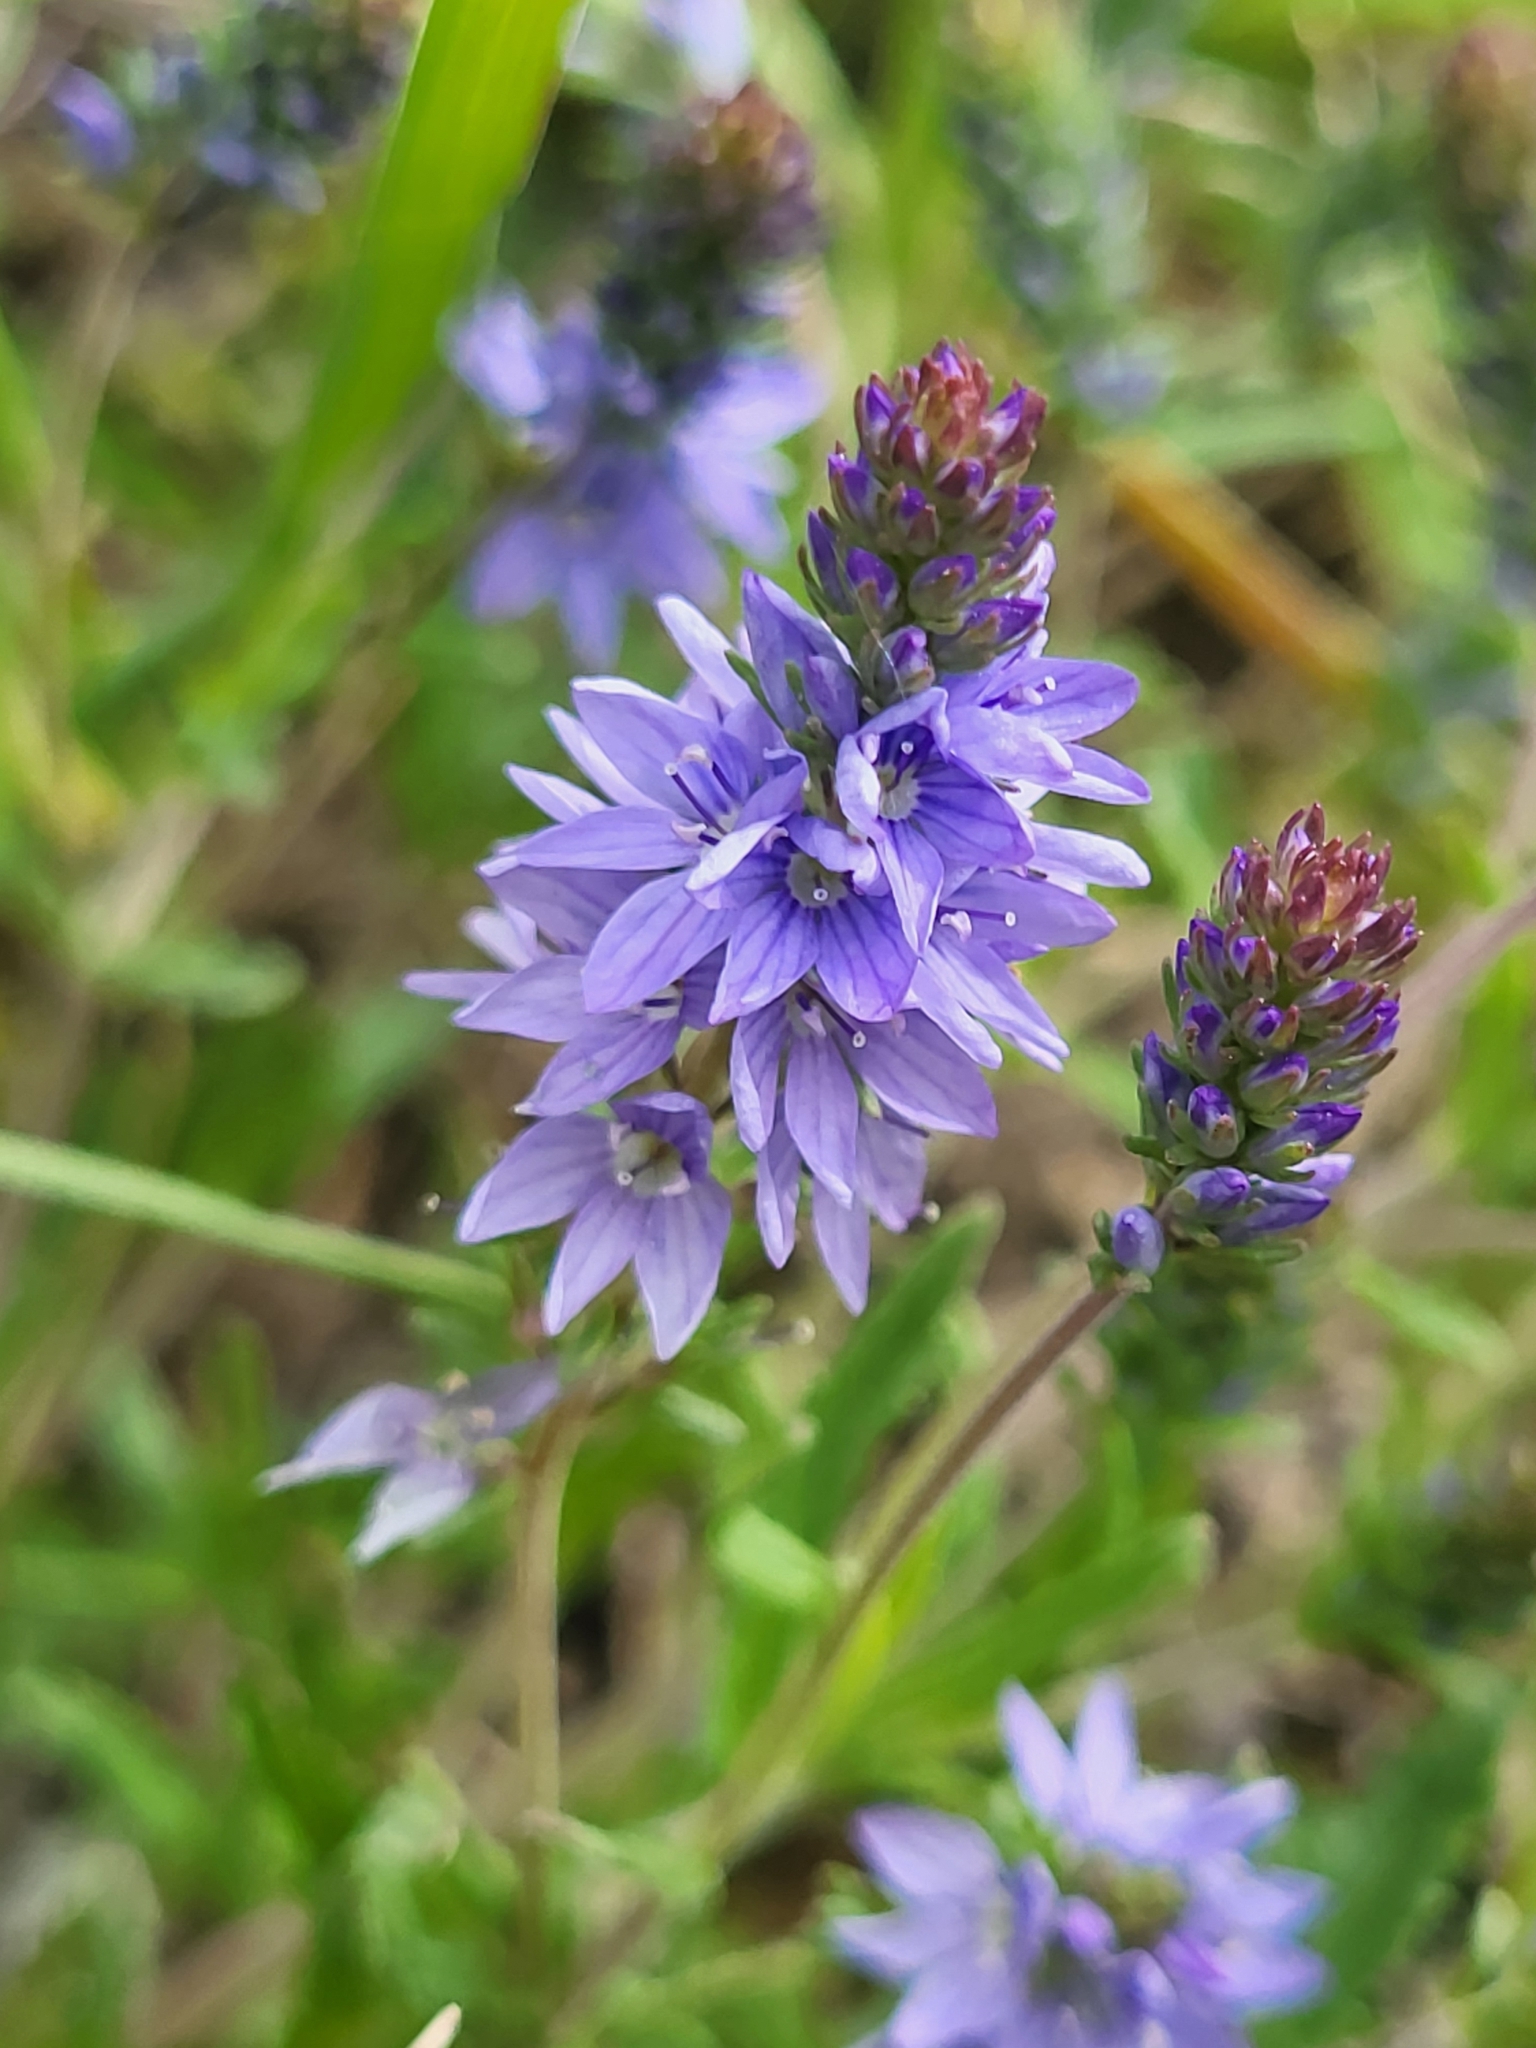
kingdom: Plantae
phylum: Tracheophyta
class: Magnoliopsida
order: Lamiales
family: Plantaginaceae
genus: Veronica
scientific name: Veronica prostrata
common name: Prostrate speedwell
